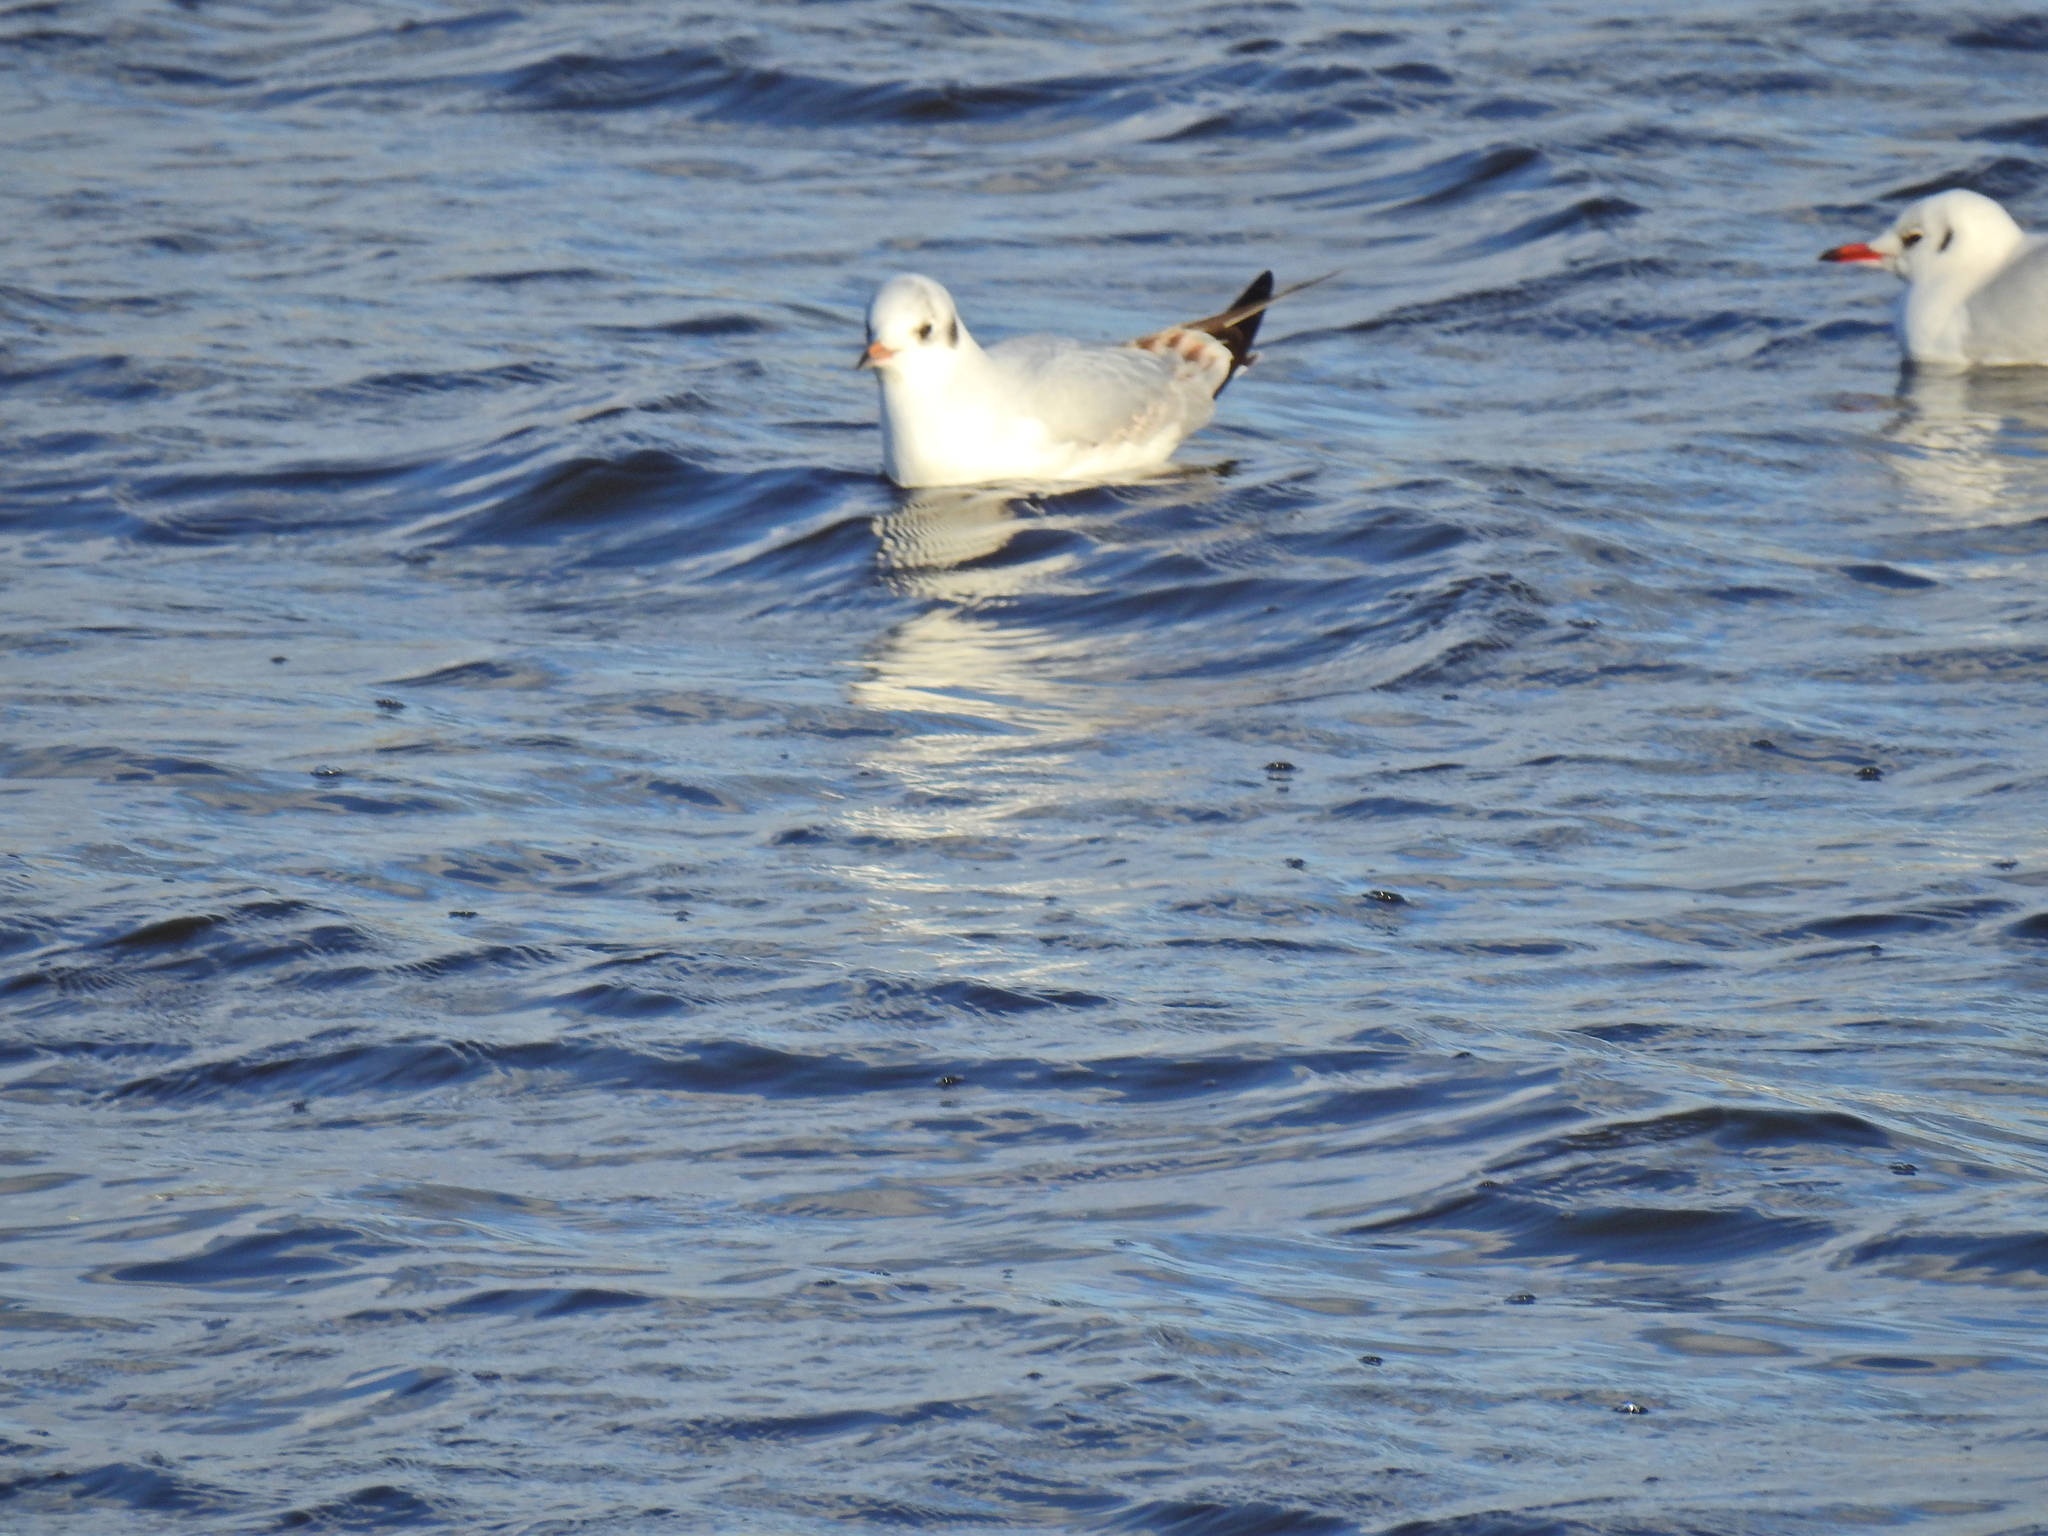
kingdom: Animalia
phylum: Chordata
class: Aves
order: Charadriiformes
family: Laridae
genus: Chroicocephalus
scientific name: Chroicocephalus ridibundus
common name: Black-headed gull
